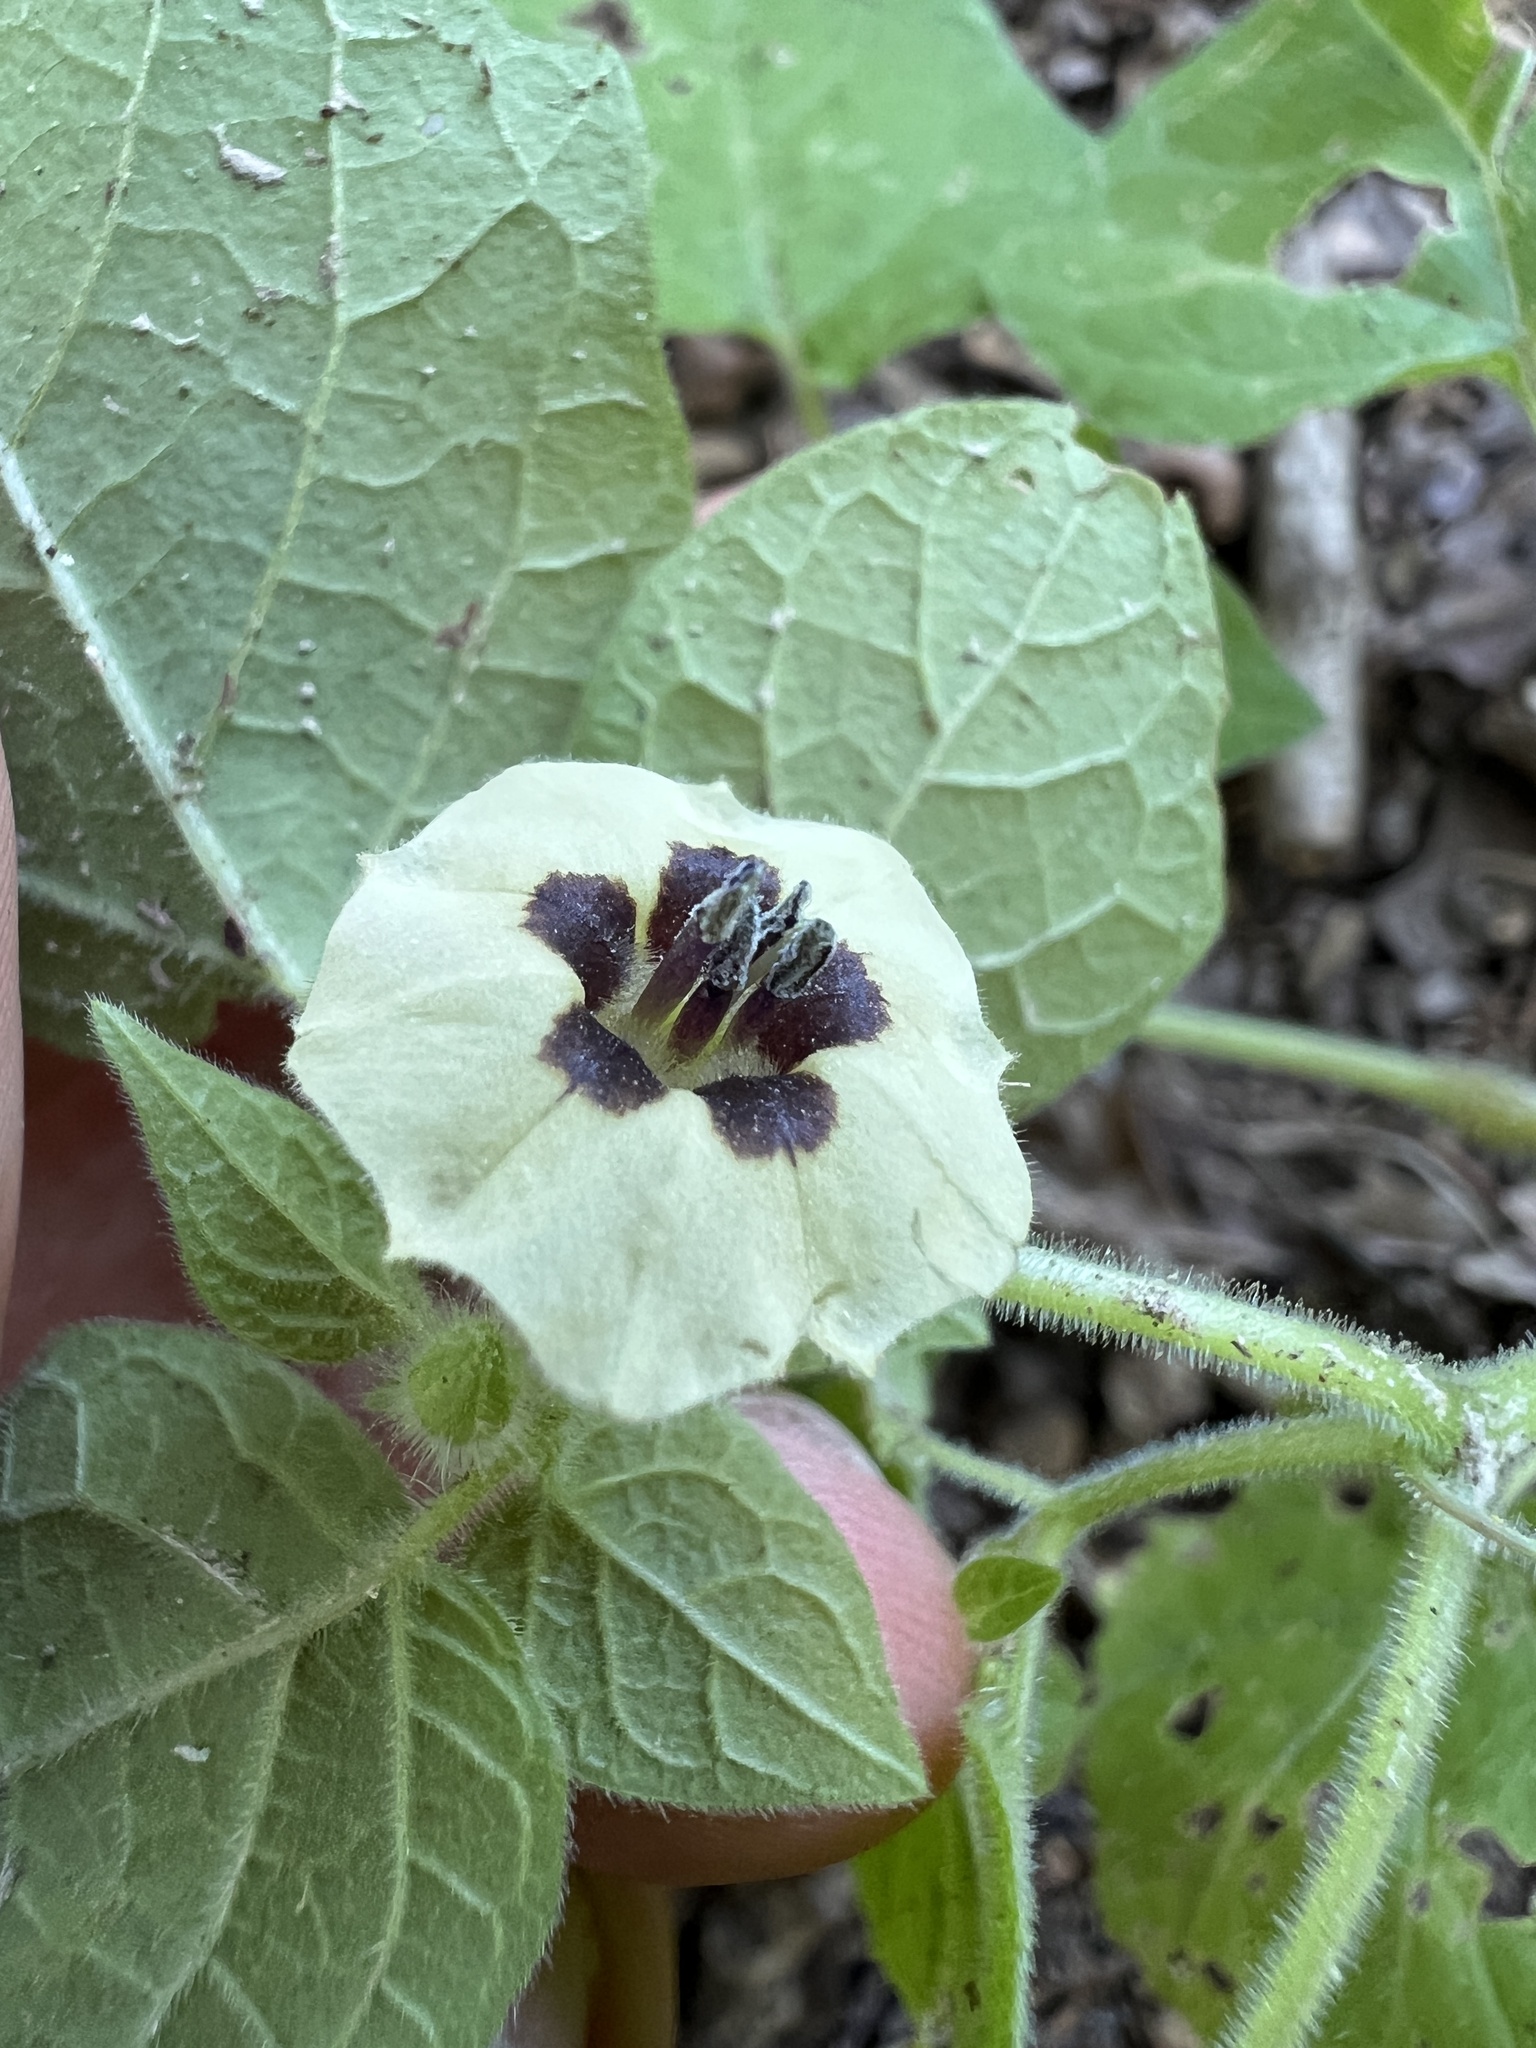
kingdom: Plantae
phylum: Tracheophyta
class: Magnoliopsida
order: Solanales
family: Solanaceae
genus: Physalis
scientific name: Physalis pubescens
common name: Downy ground-cherry
